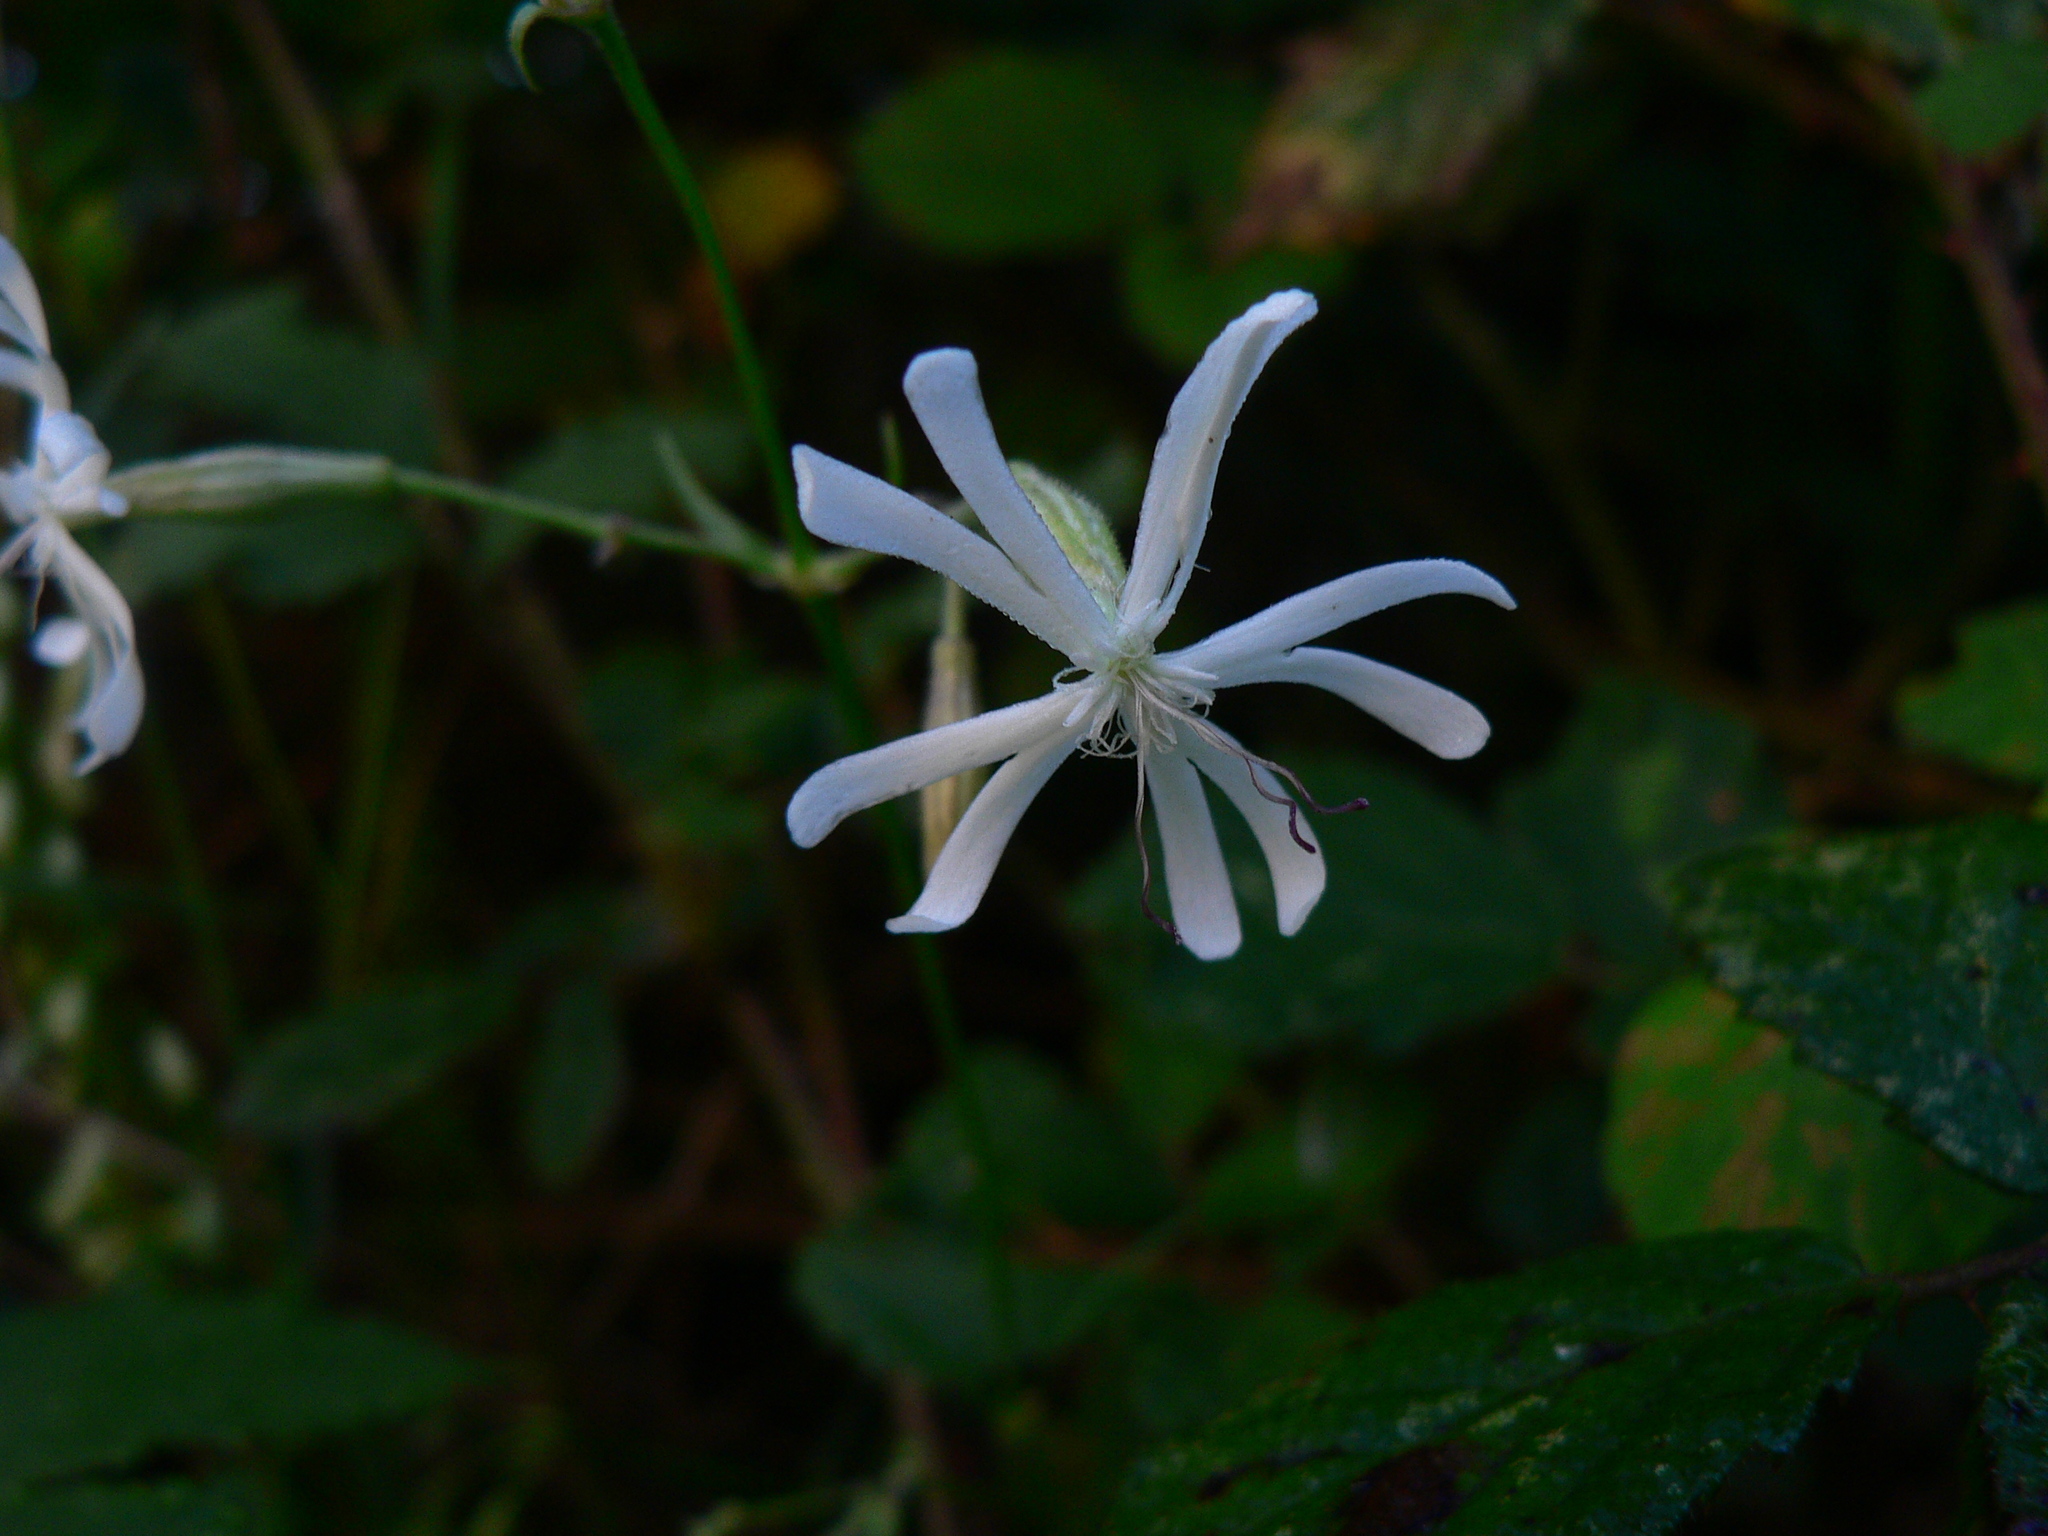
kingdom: Plantae
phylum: Tracheophyta
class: Magnoliopsida
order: Caryophyllales
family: Caryophyllaceae
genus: Silene
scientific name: Silene nutans
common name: Nottingham catchfly
